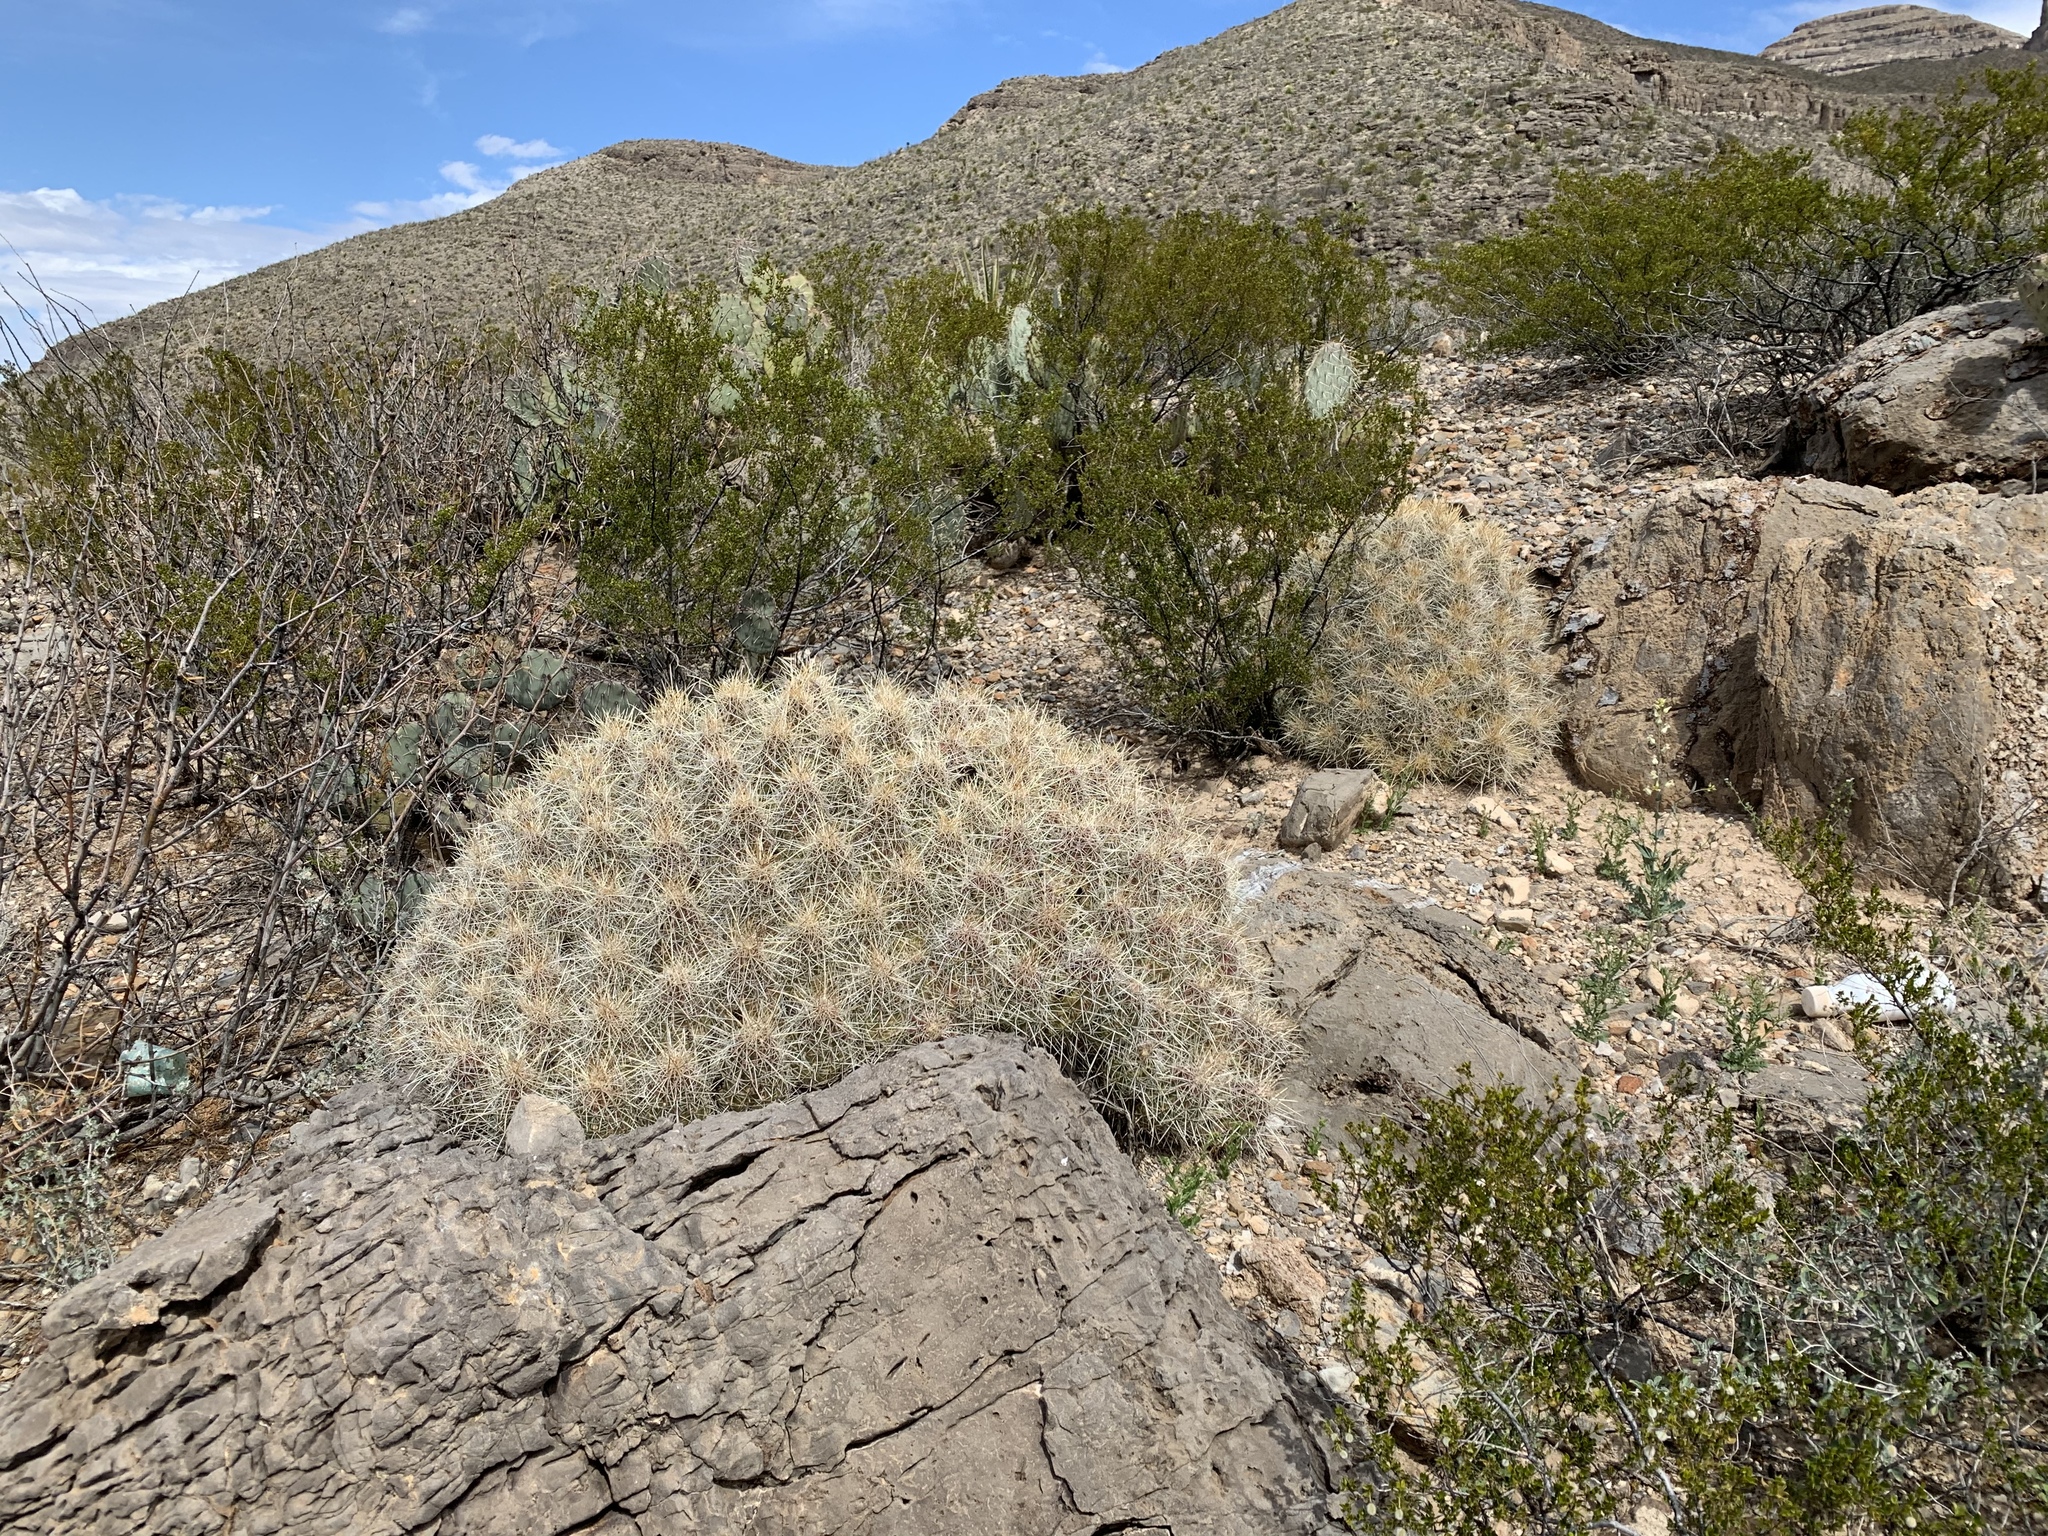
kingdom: Plantae
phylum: Tracheophyta
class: Magnoliopsida
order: Caryophyllales
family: Cactaceae
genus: Echinocereus
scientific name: Echinocereus stramineus
